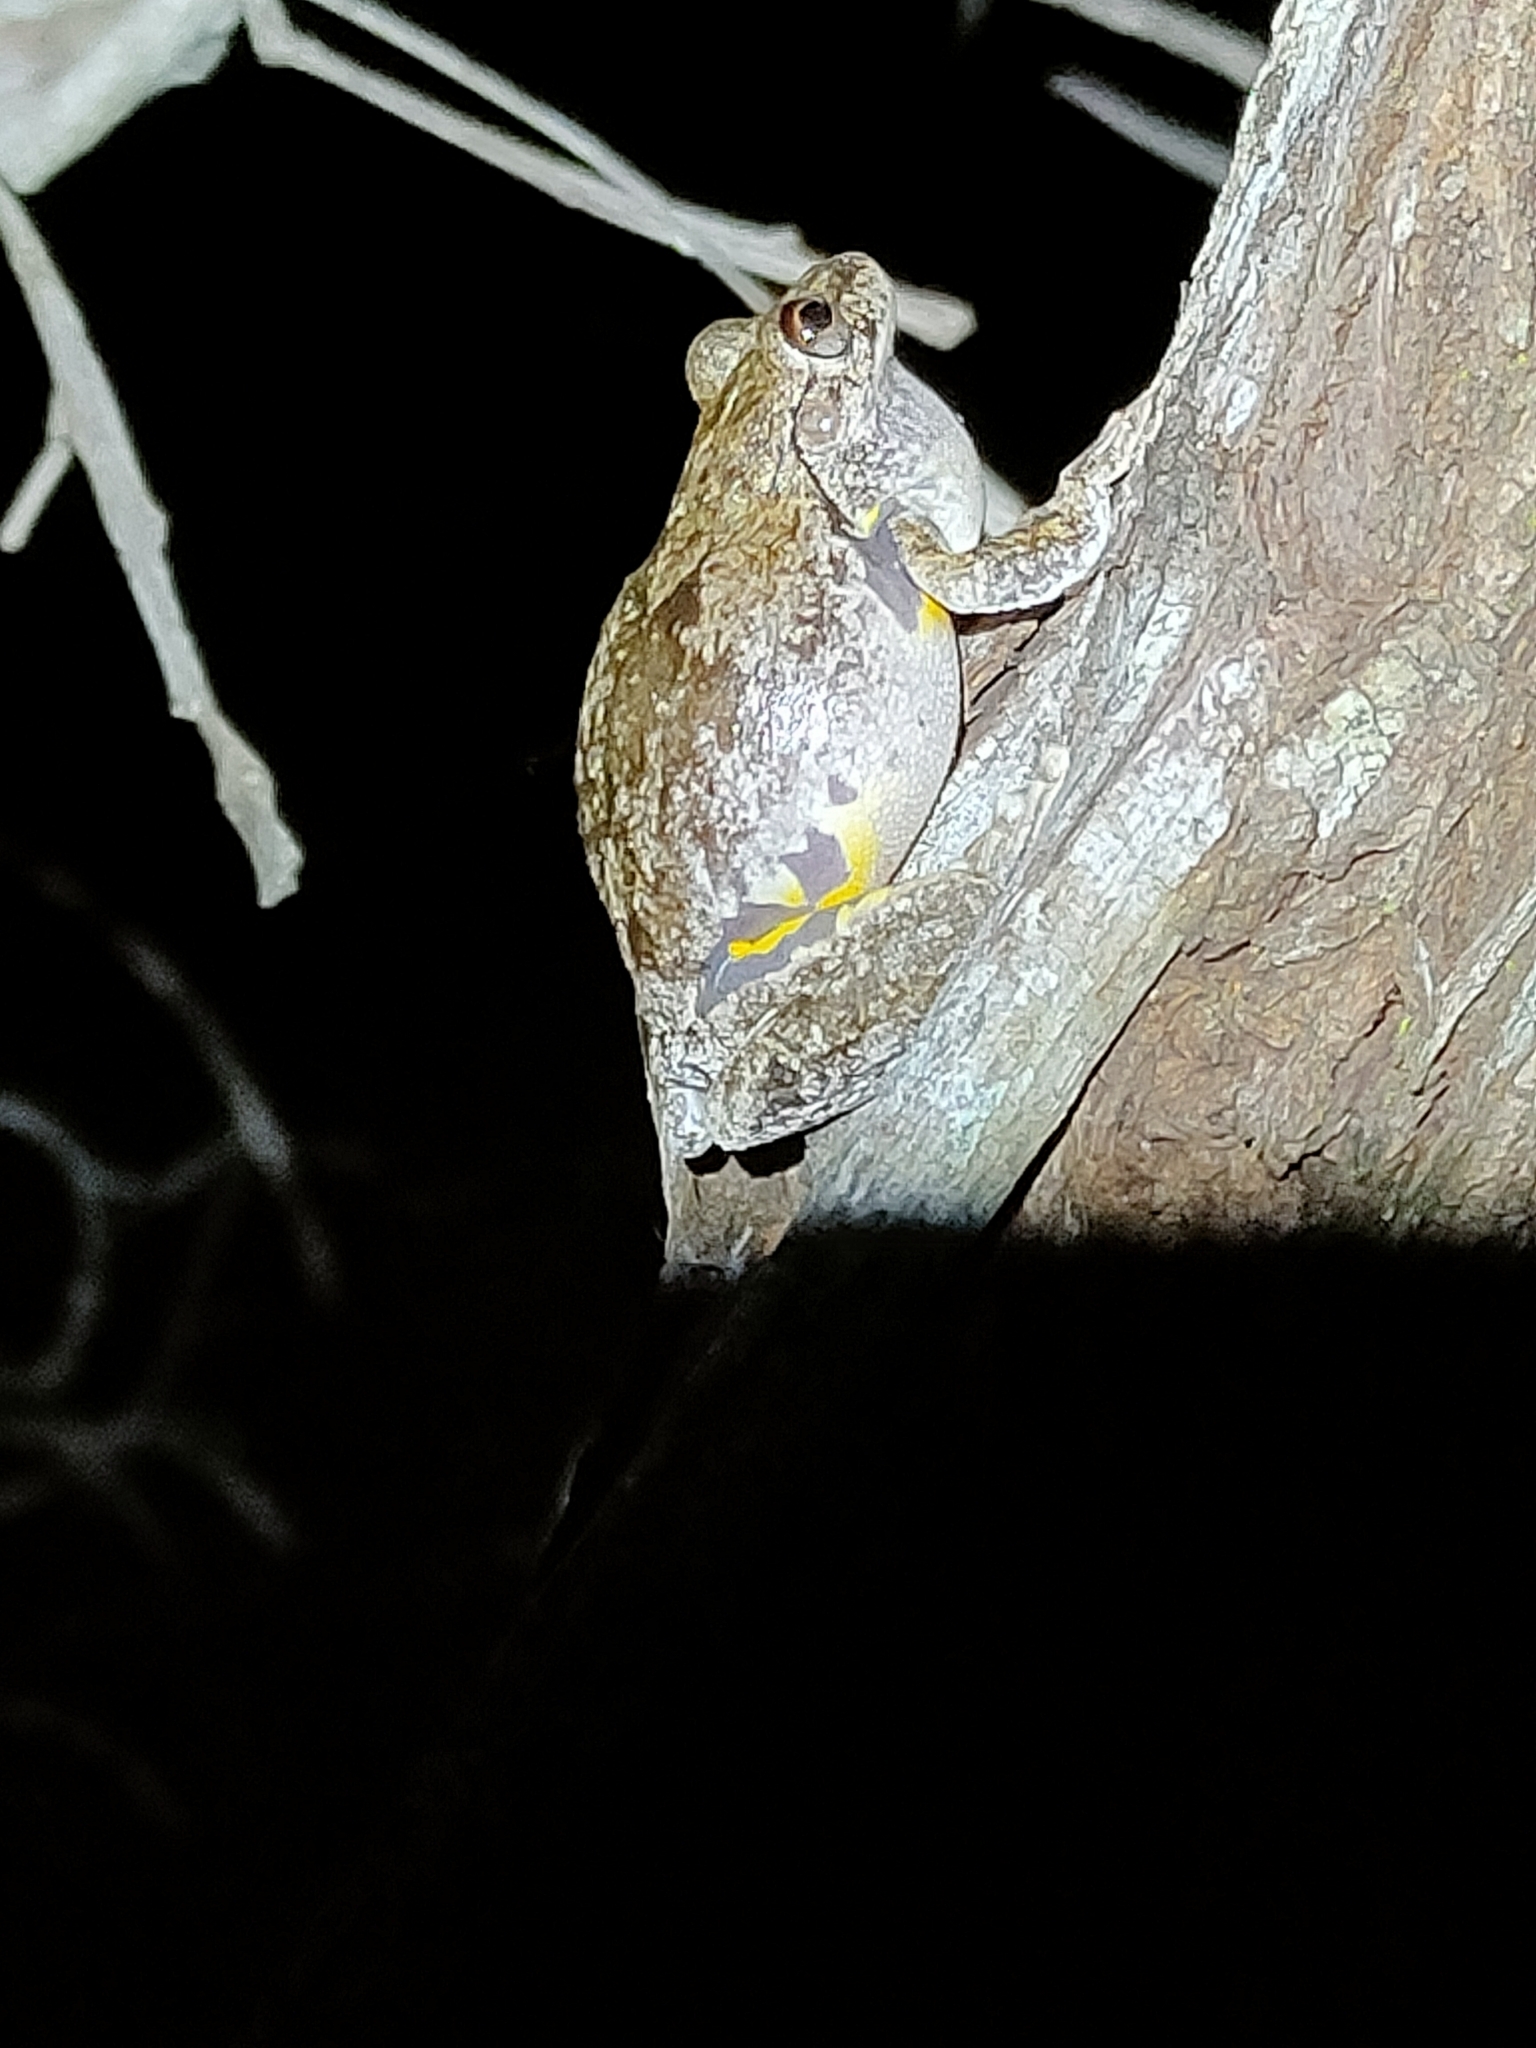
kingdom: Animalia
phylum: Chordata
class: Amphibia
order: Anura
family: Pelodryadidae
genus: Litoria
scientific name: Litoria rothii
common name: Roth’s tree frog
